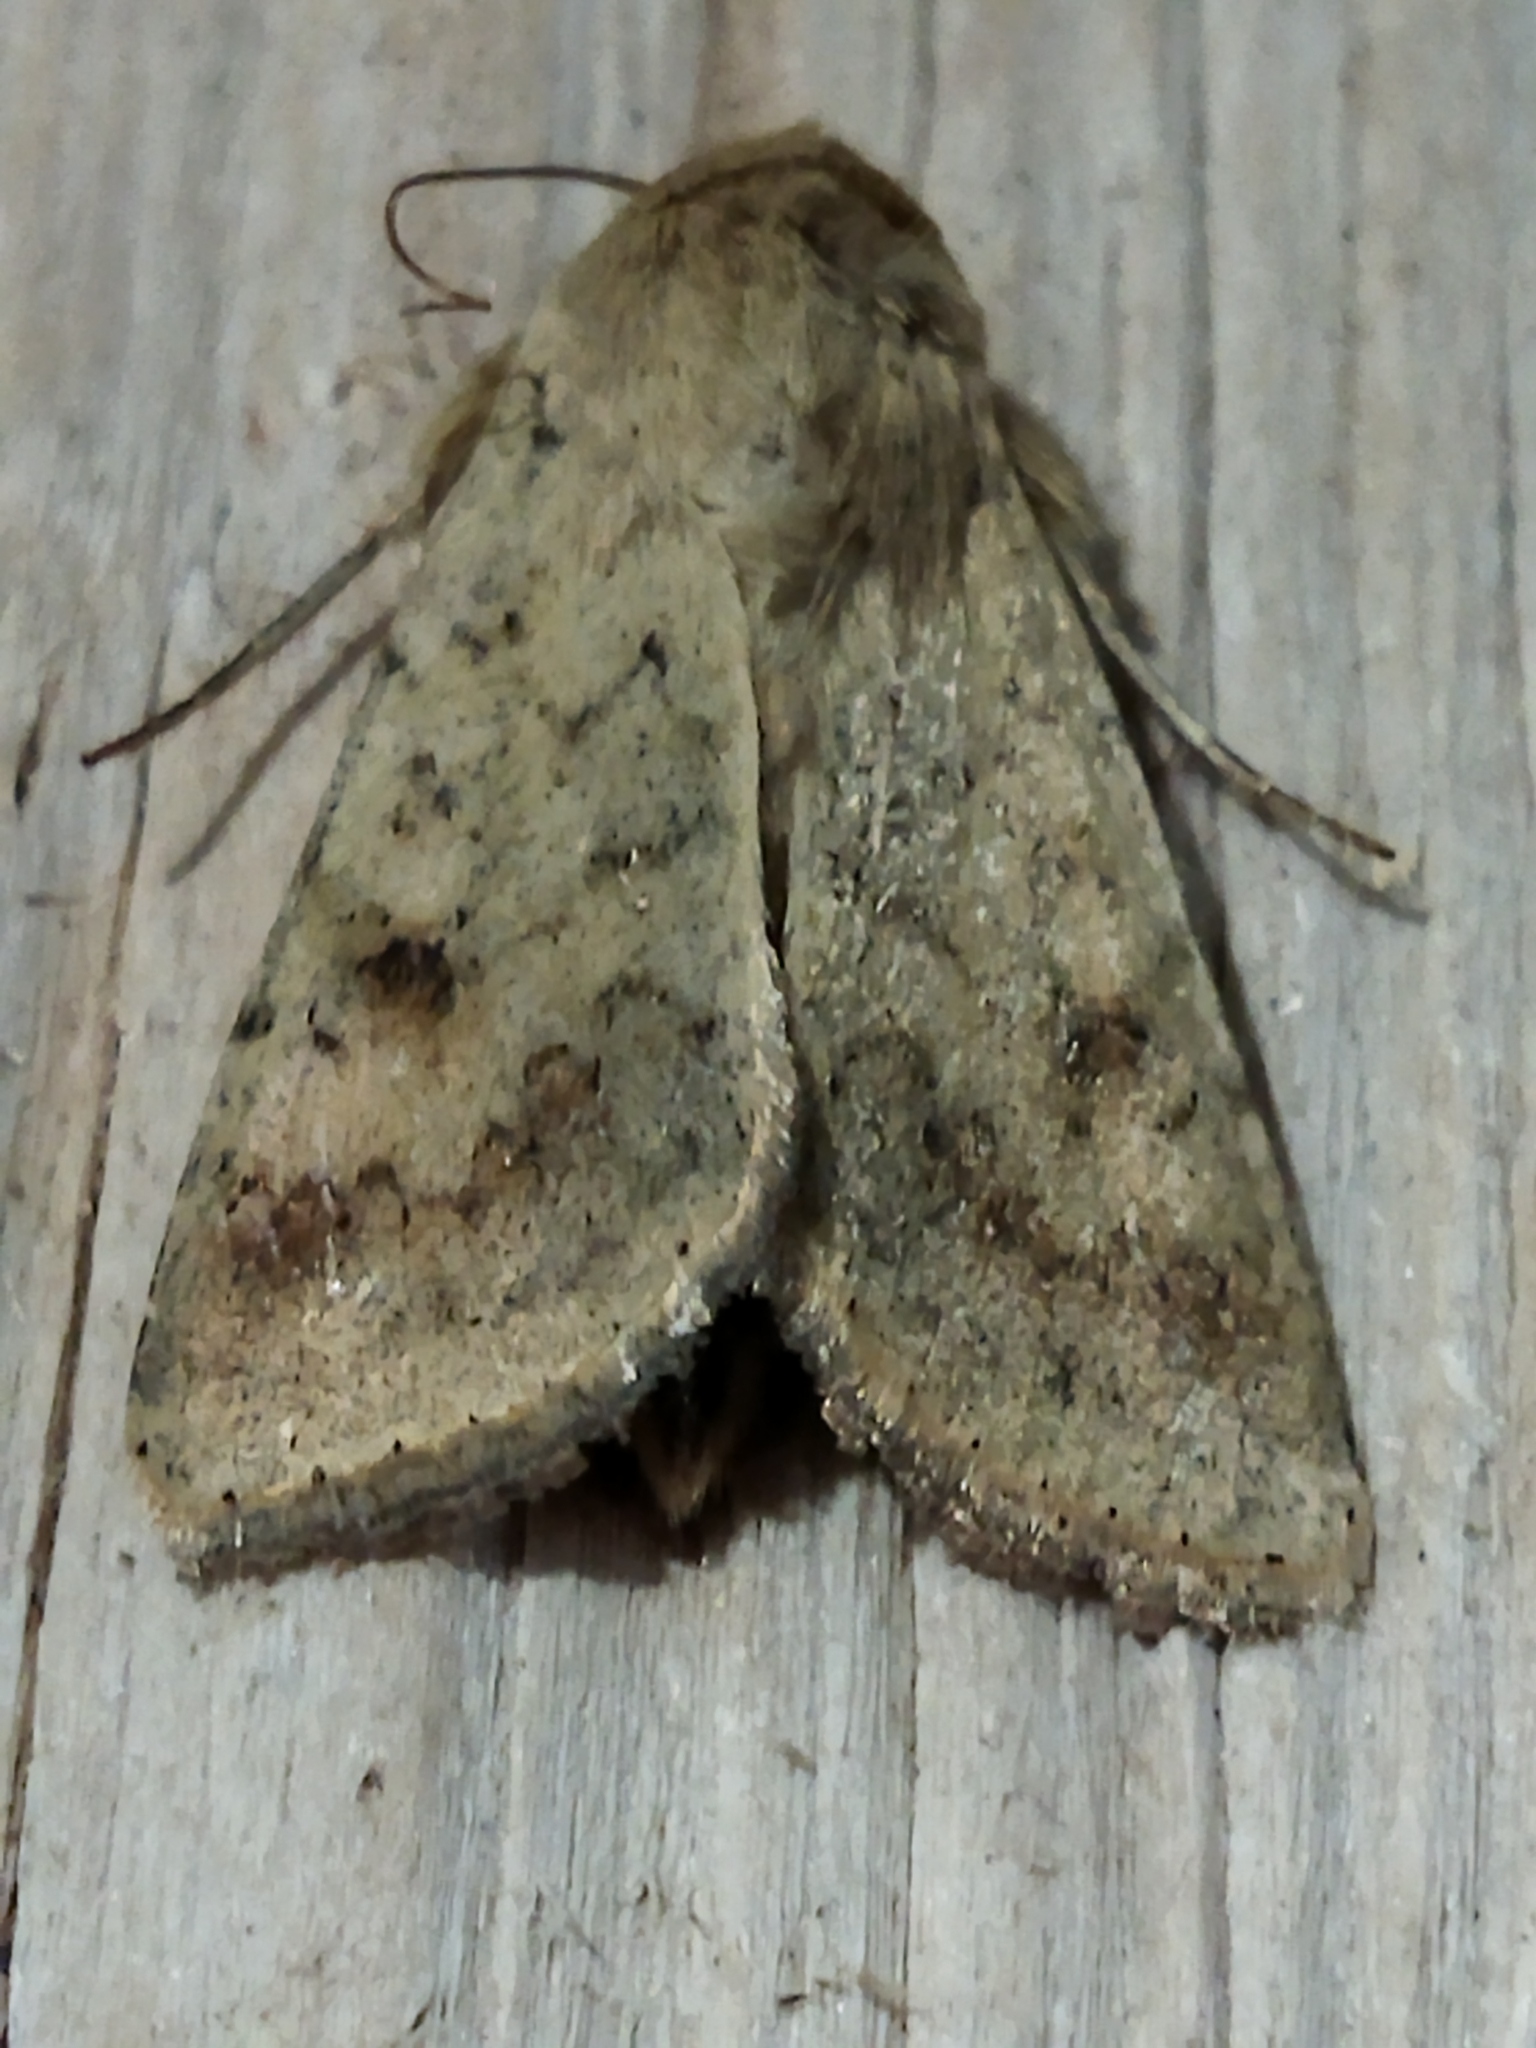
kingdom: Animalia
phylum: Arthropoda
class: Insecta
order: Lepidoptera
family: Noctuidae
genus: Helicoverpa
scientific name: Helicoverpa armigera
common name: Cotton bollworm
